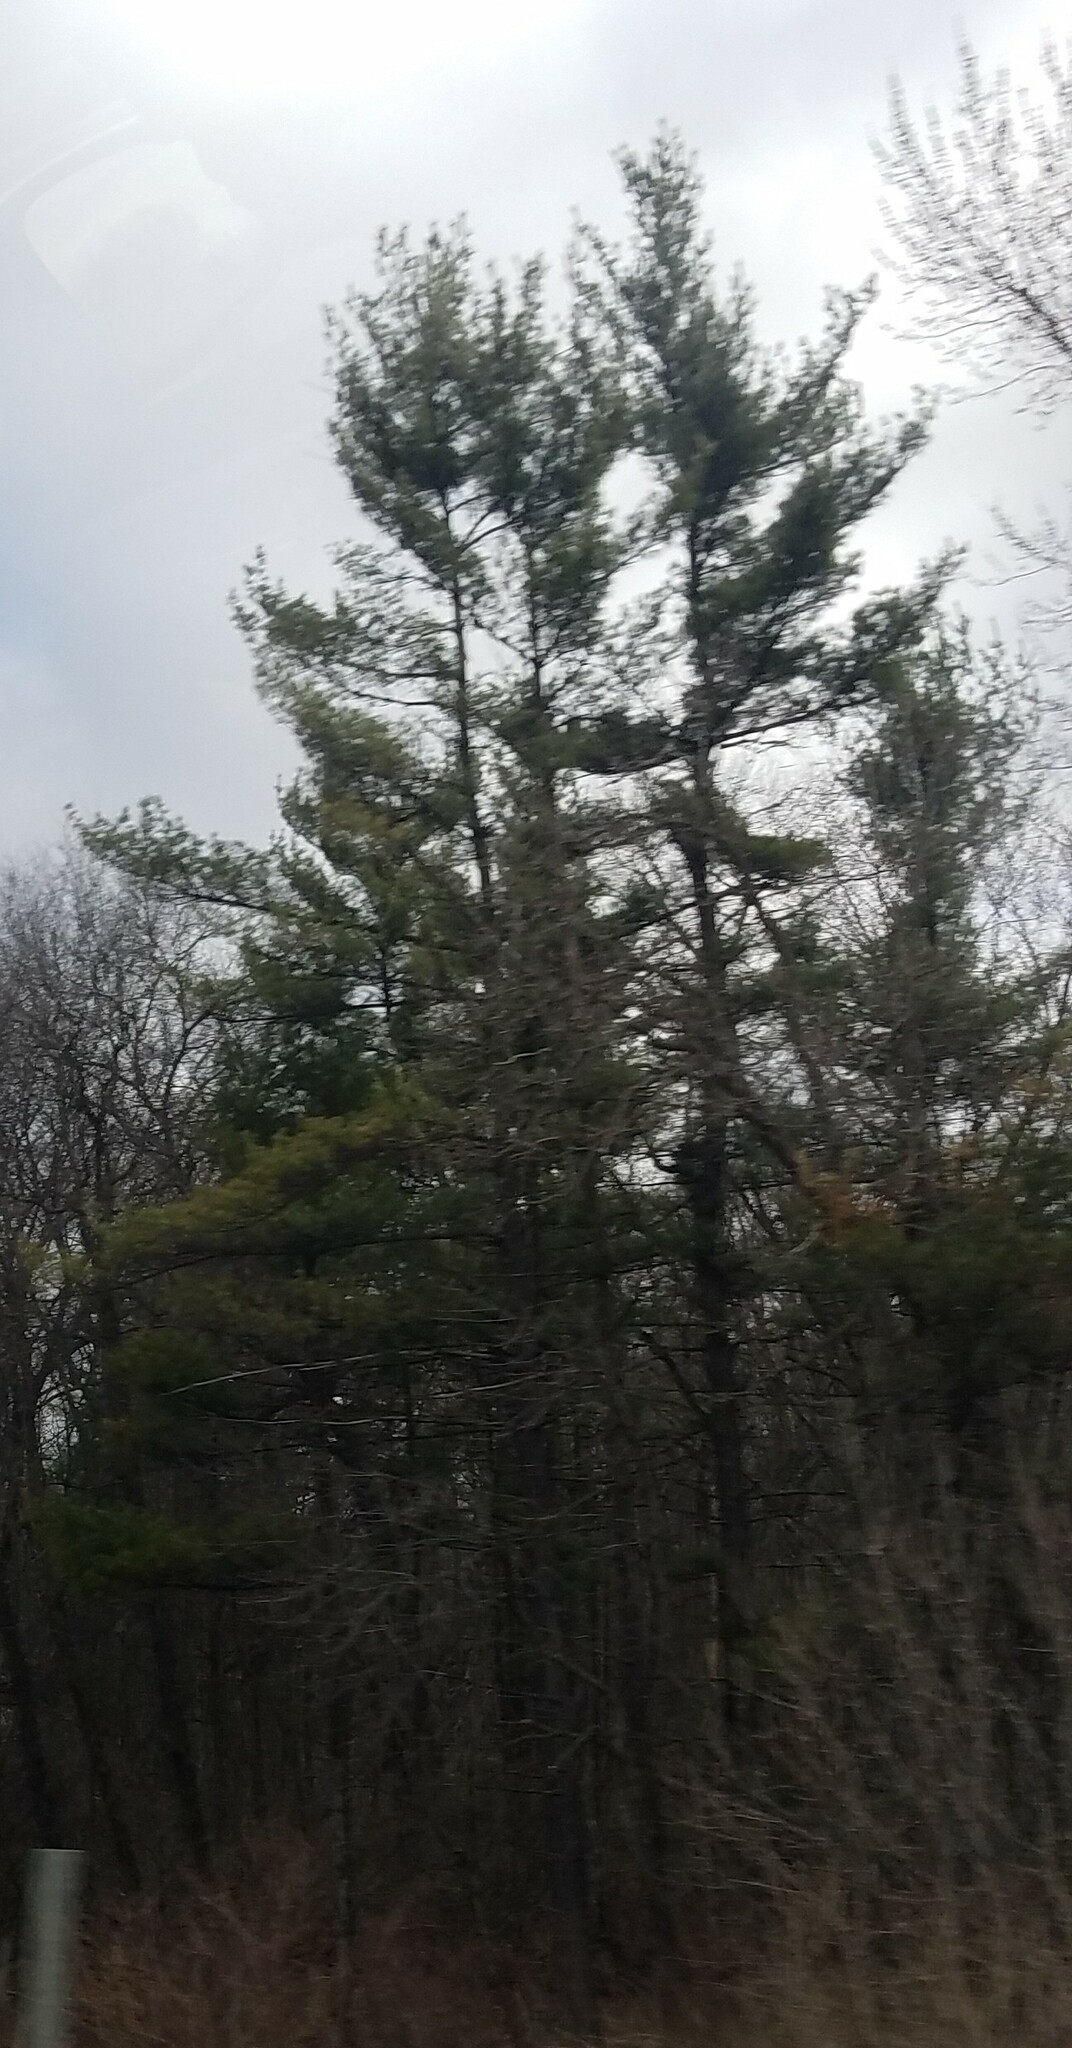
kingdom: Plantae
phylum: Tracheophyta
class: Pinopsida
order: Pinales
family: Pinaceae
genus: Pinus
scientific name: Pinus strobus
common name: Weymouth pine
